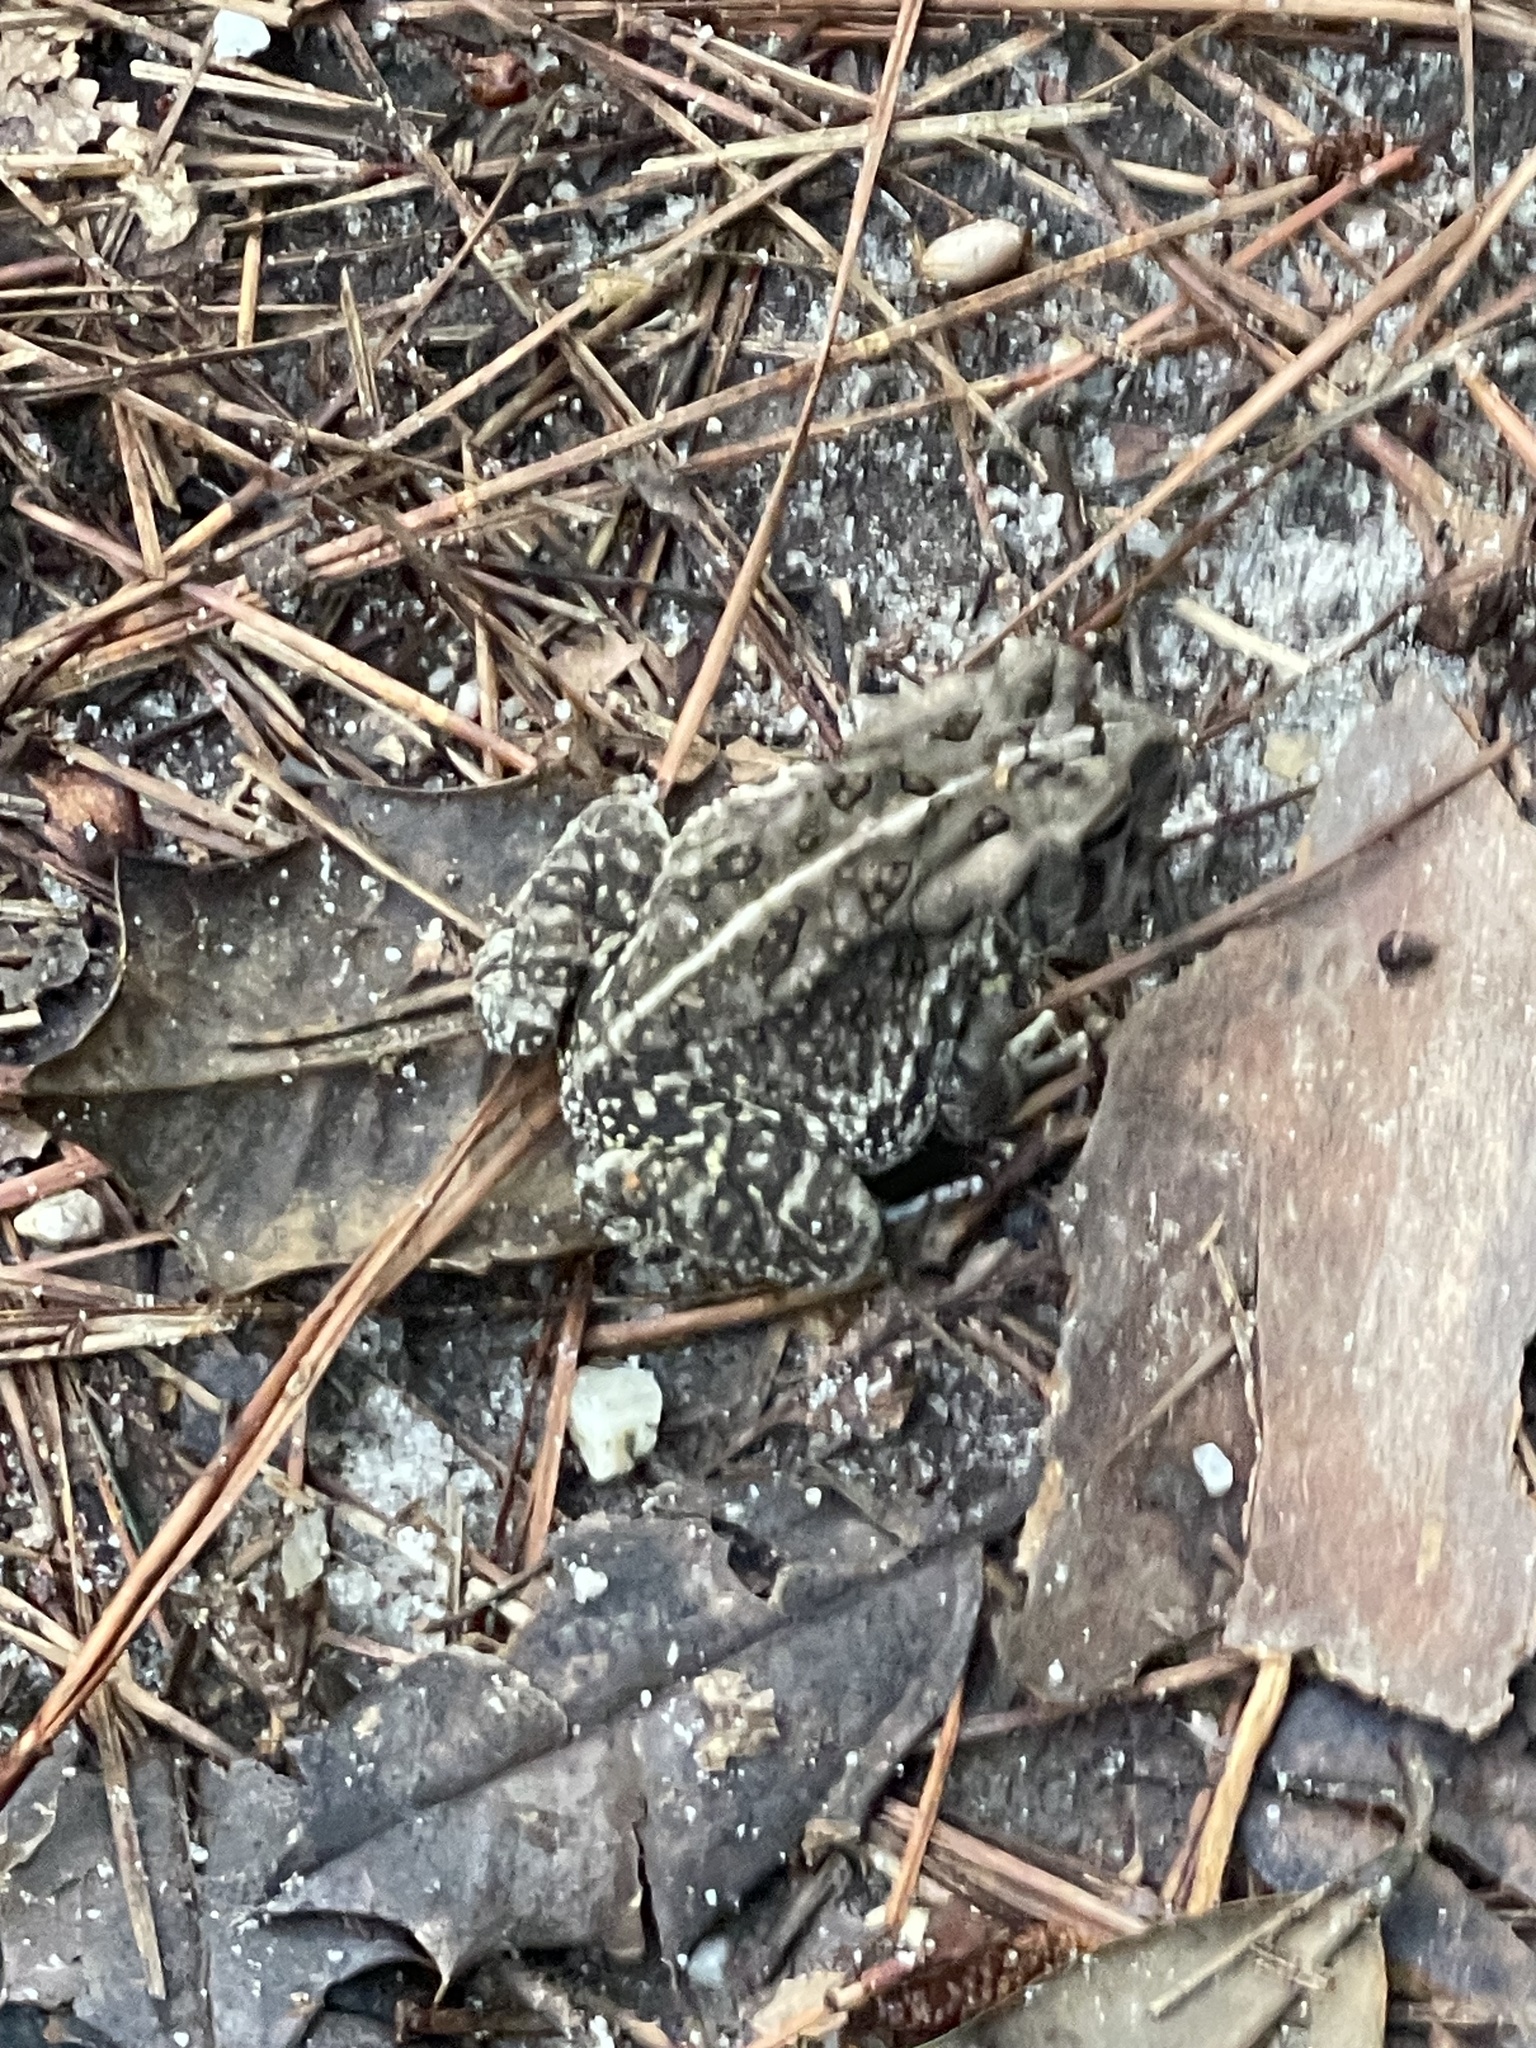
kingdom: Animalia
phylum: Chordata
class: Amphibia
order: Anura
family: Bufonidae
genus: Anaxyrus
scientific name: Anaxyrus fowleri
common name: Fowler's toad
